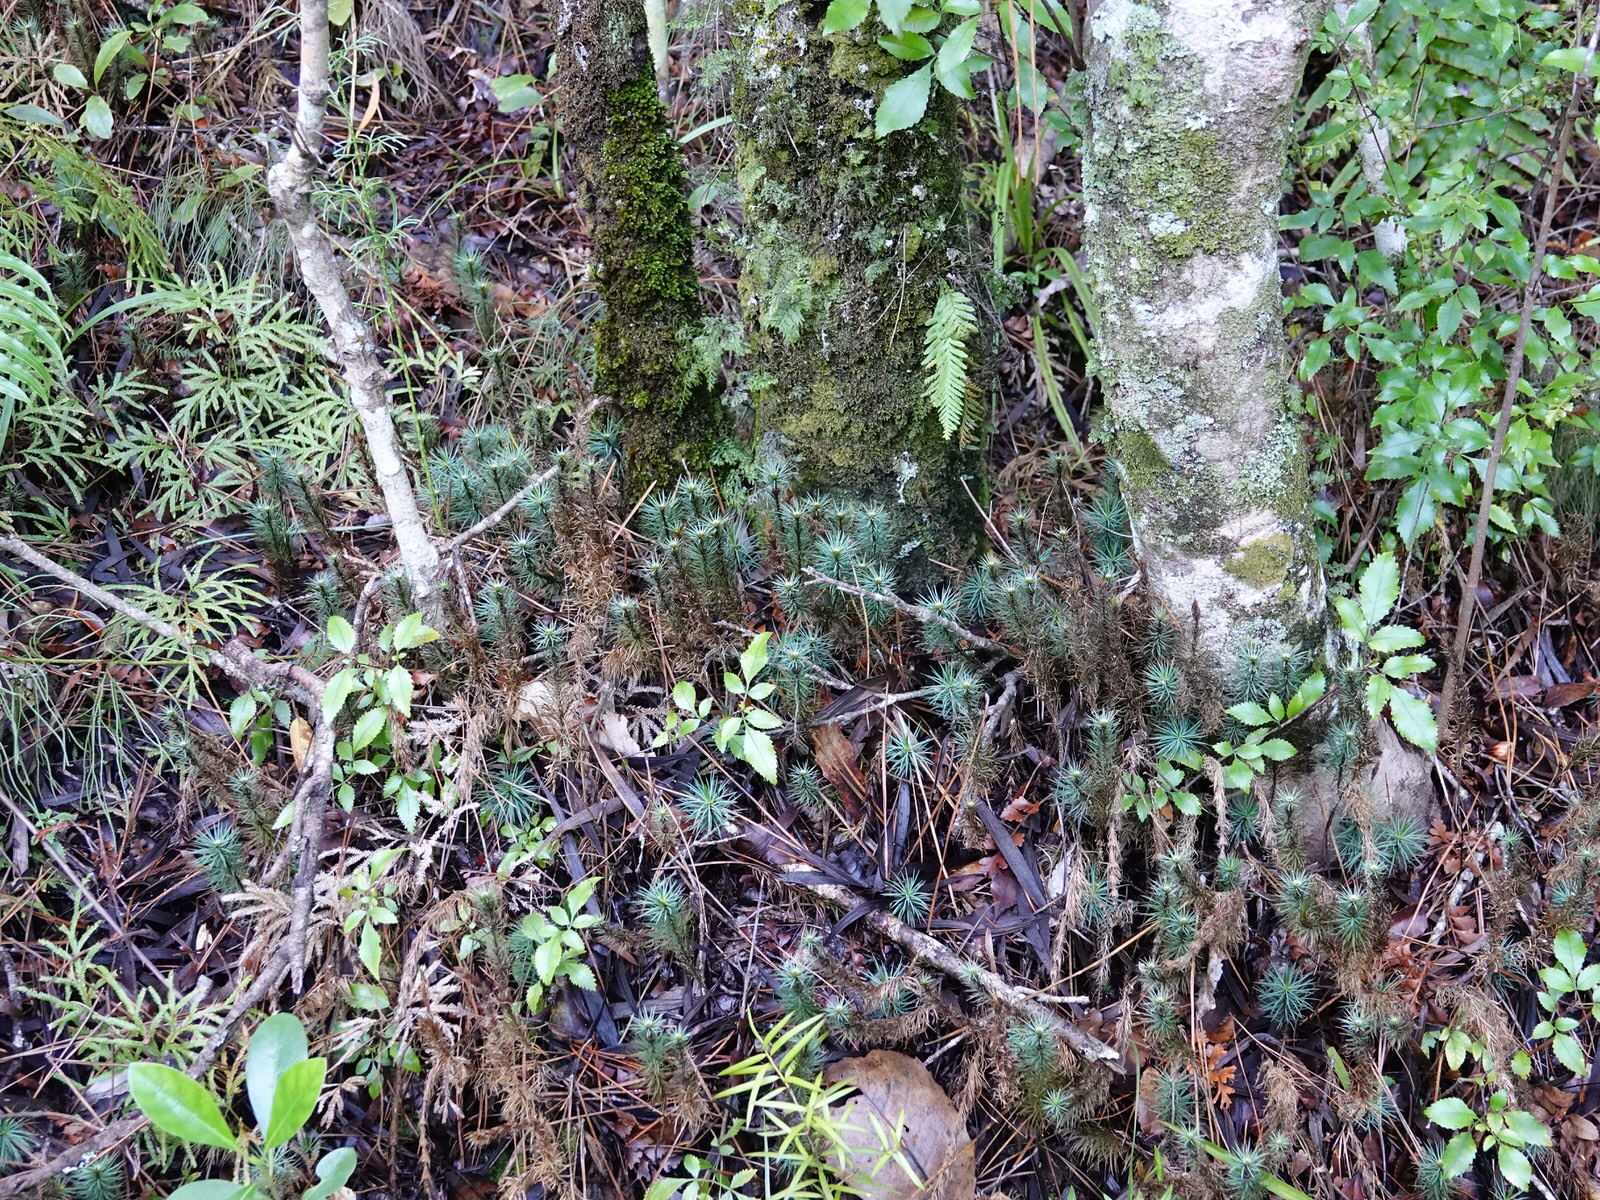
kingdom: Plantae
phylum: Bryophyta
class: Polytrichopsida
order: Polytrichales
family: Polytrichaceae
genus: Dawsonia
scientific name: Dawsonia superba
